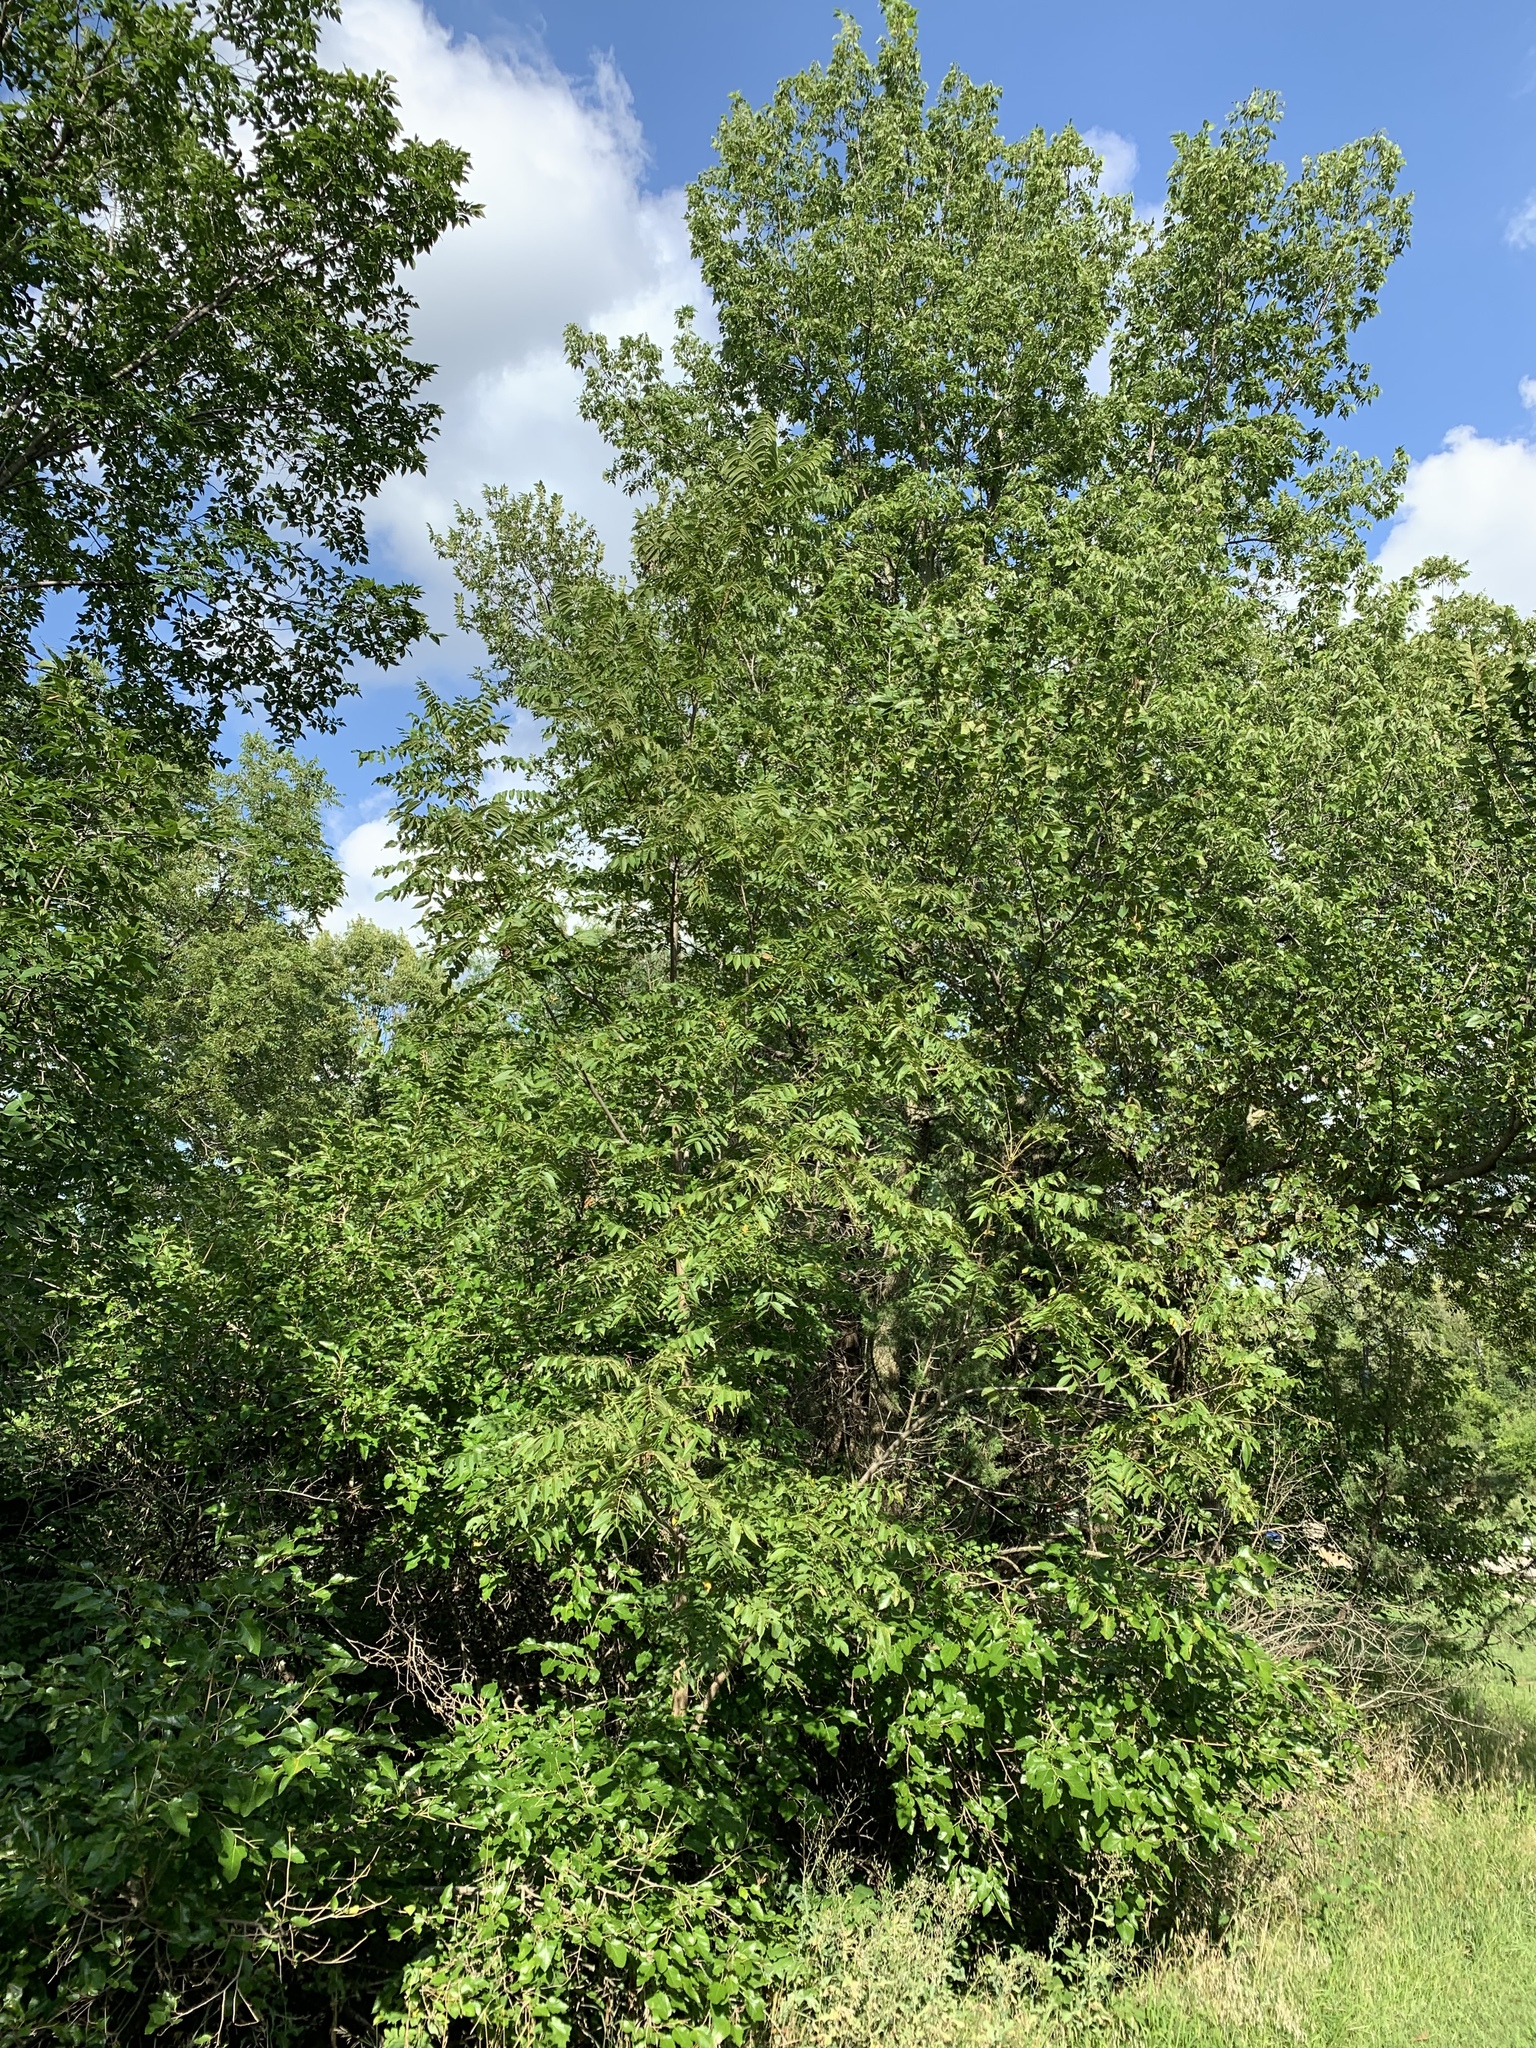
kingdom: Plantae
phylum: Tracheophyta
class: Magnoliopsida
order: Fagales
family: Juglandaceae
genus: Juglans
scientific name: Juglans nigra
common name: Black walnut
